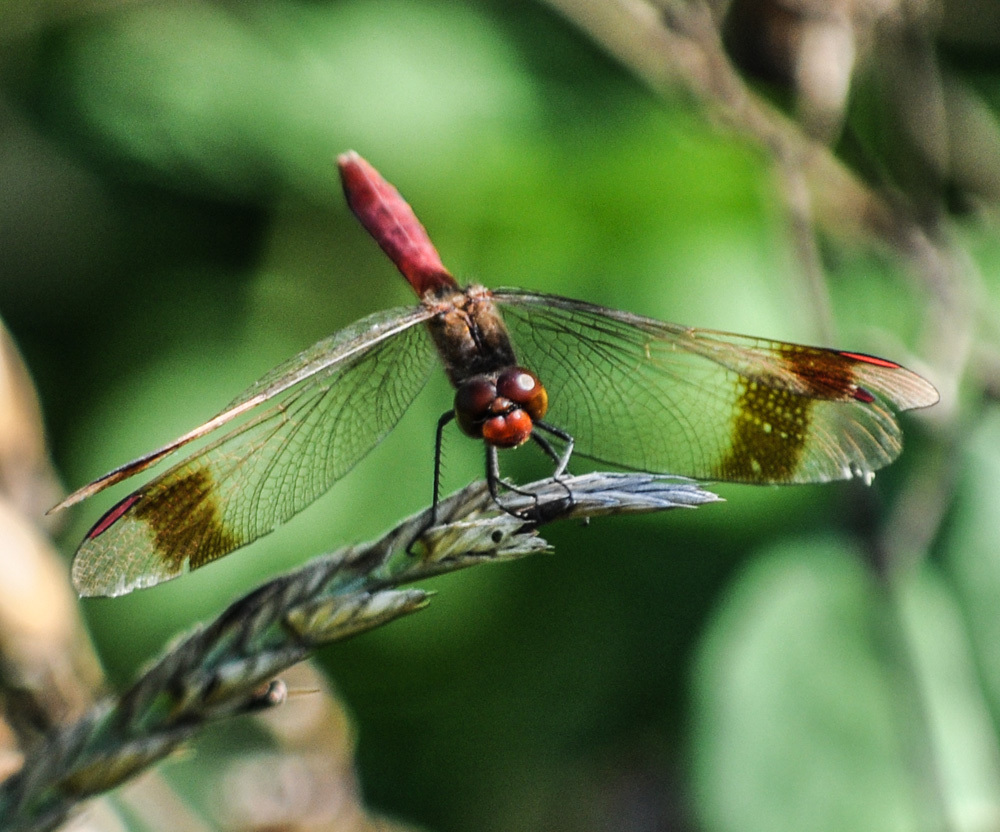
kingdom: Animalia
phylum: Arthropoda
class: Insecta
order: Odonata
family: Libellulidae
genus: Sympetrum
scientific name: Sympetrum pedemontanum
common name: Banded darter
